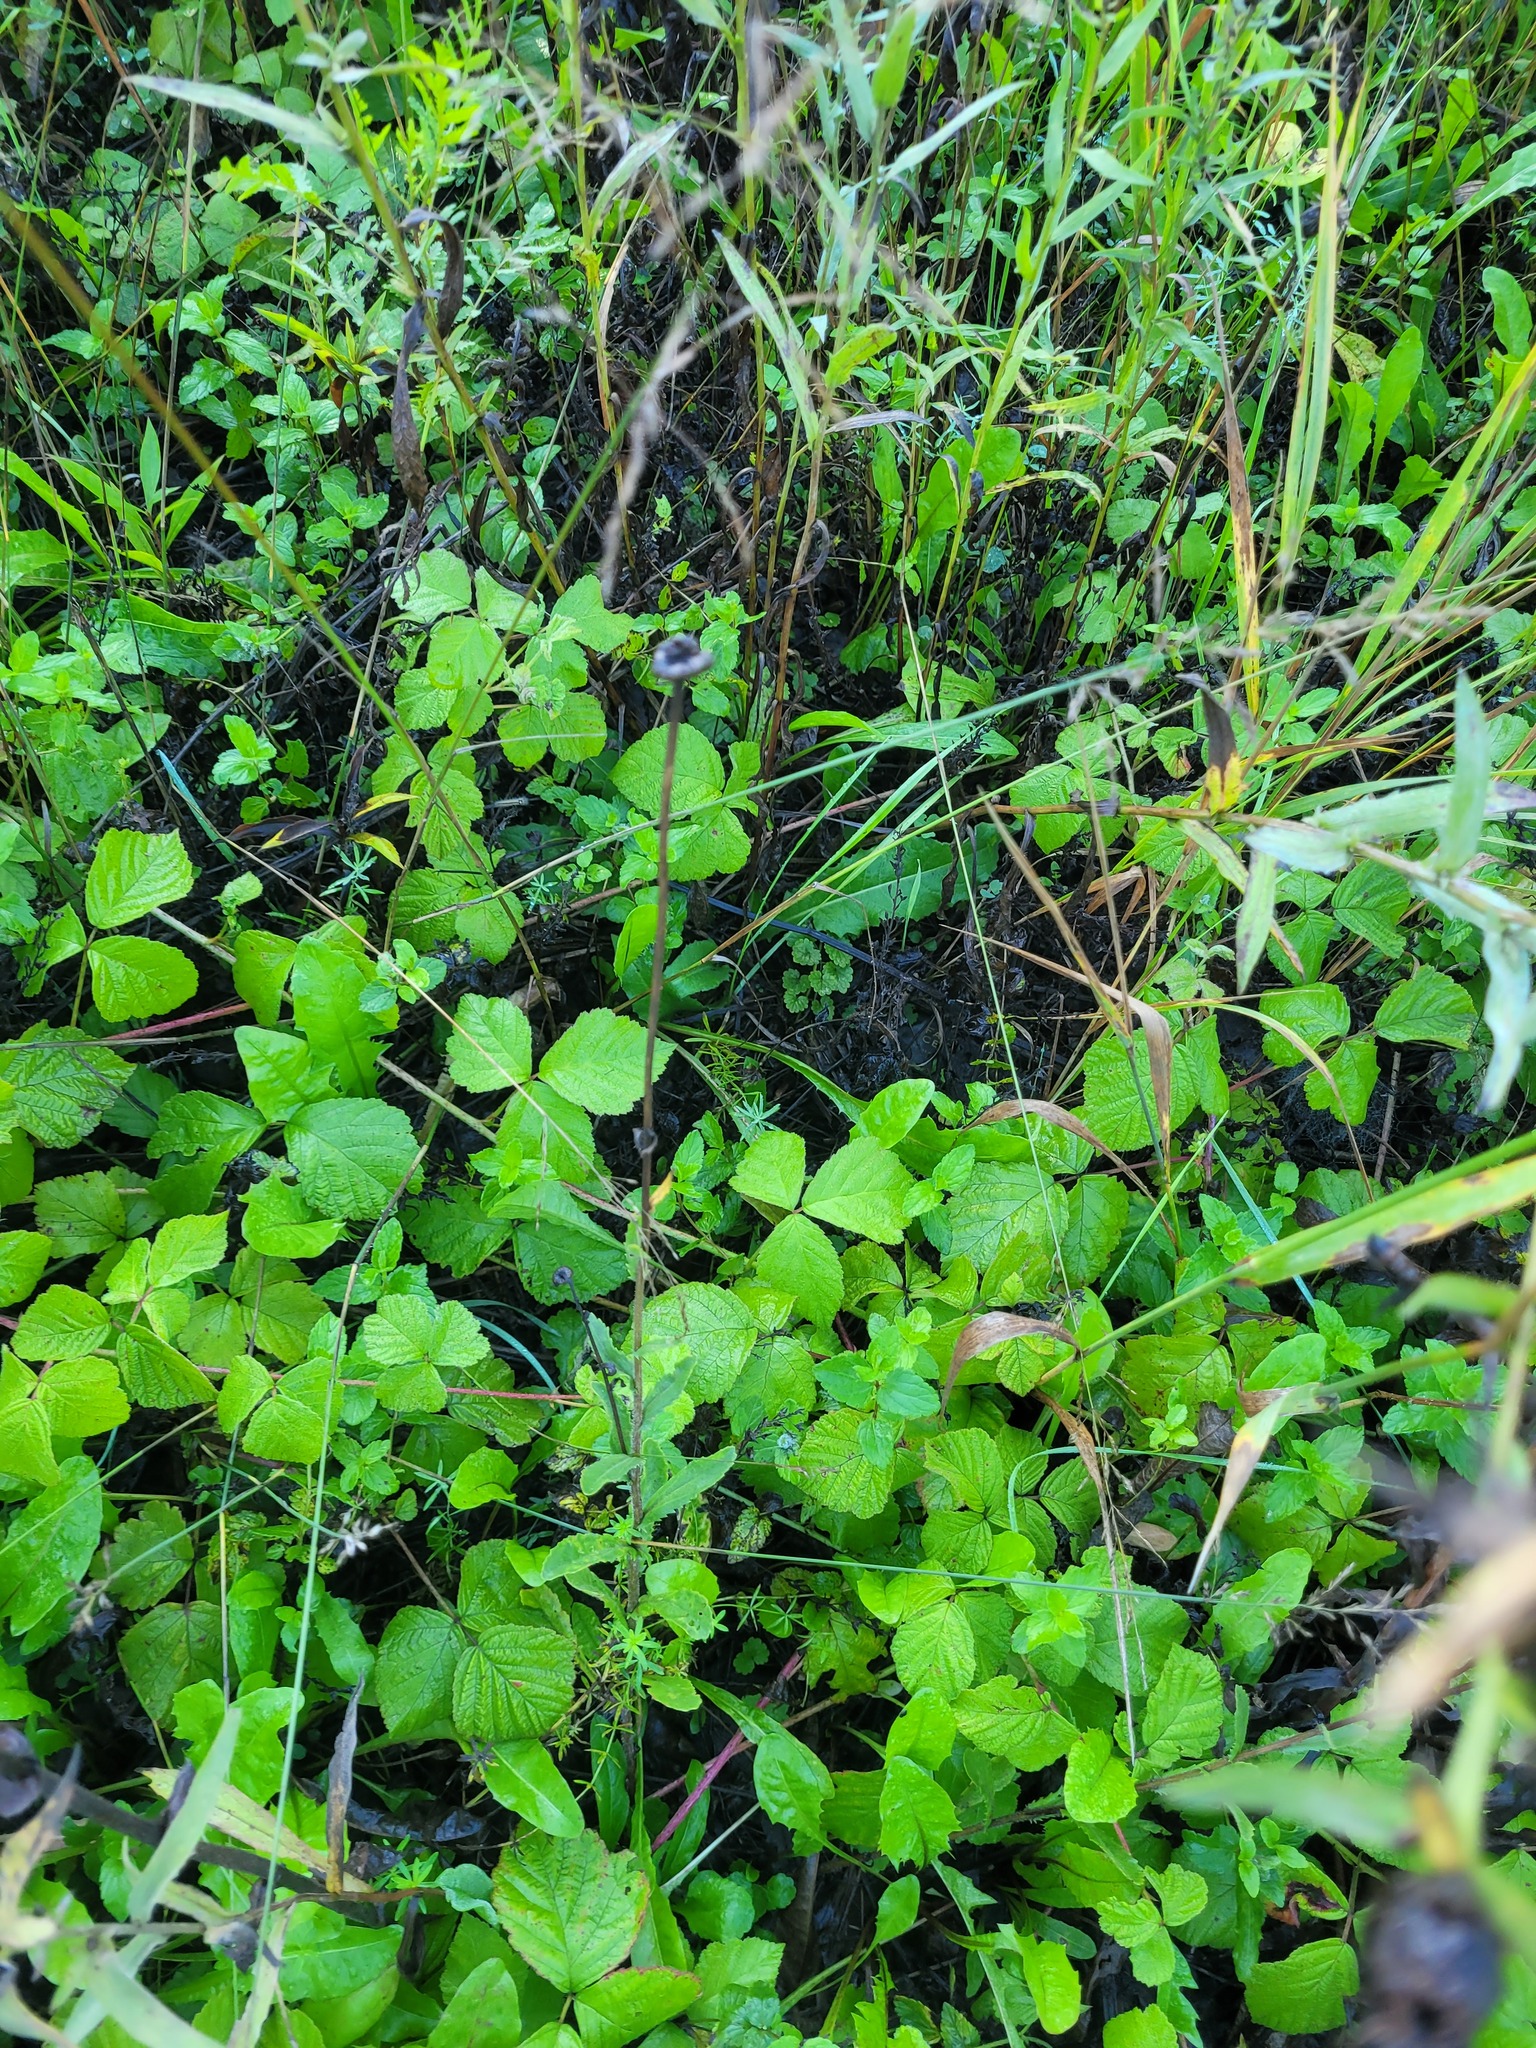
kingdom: Plantae
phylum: Tracheophyta
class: Magnoliopsida
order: Asterales
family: Asteraceae
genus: Leucanthemum
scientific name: Leucanthemum vulgare
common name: Oxeye daisy
